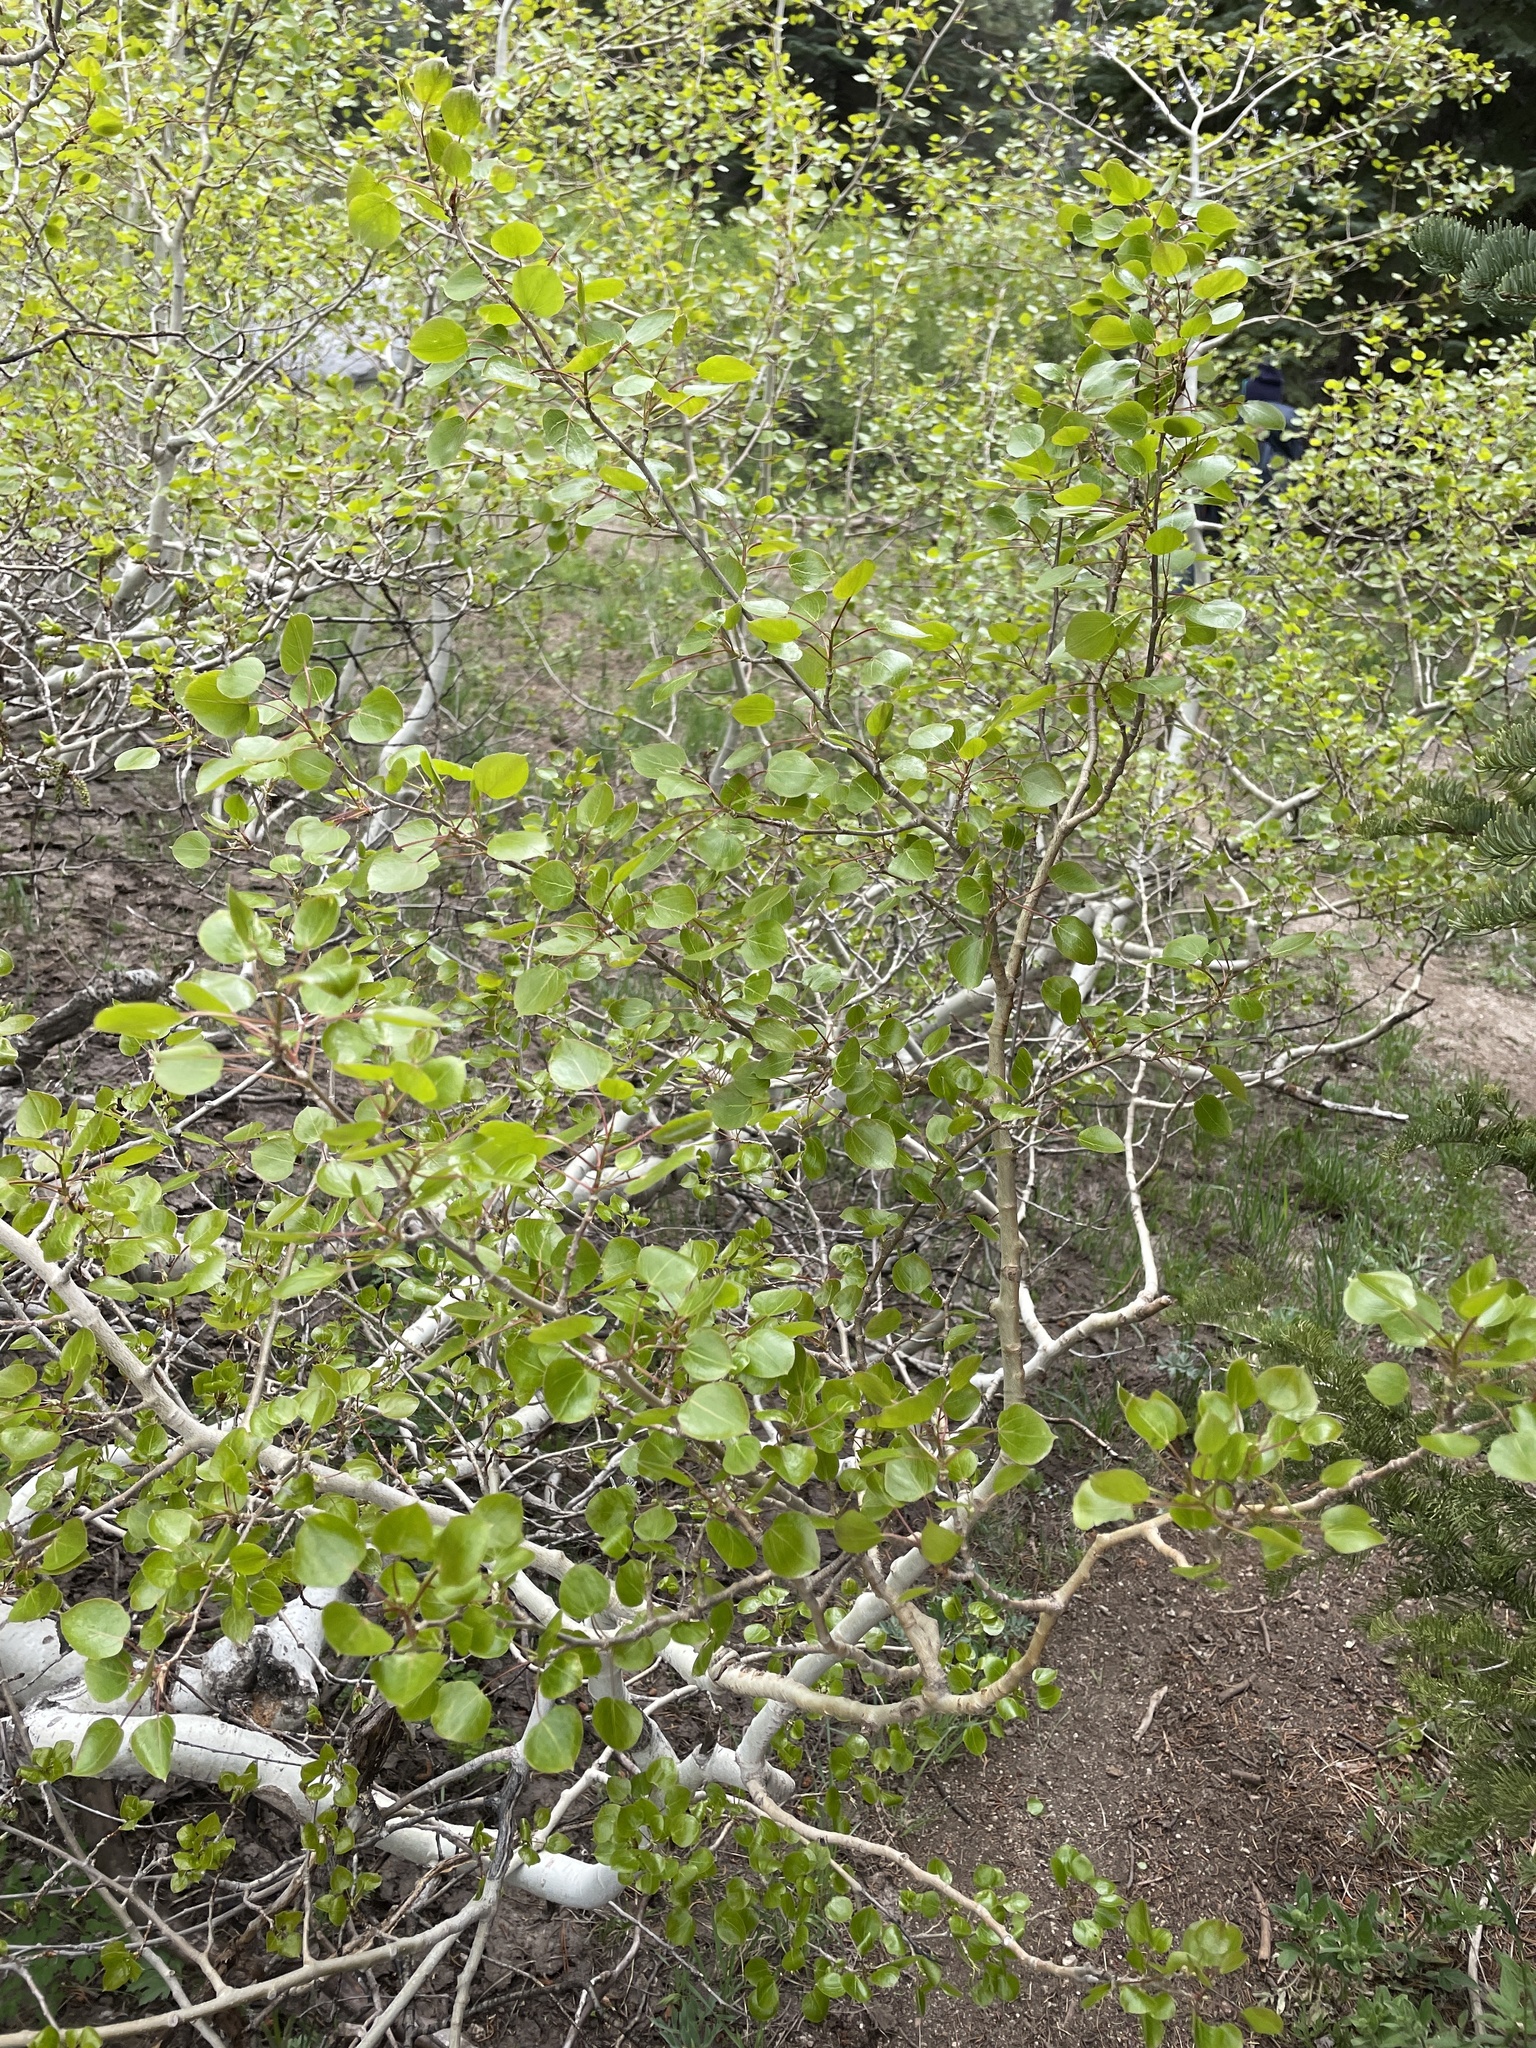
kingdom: Plantae
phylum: Tracheophyta
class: Magnoliopsida
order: Malpighiales
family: Salicaceae
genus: Populus
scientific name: Populus tremuloides
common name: Quaking aspen
